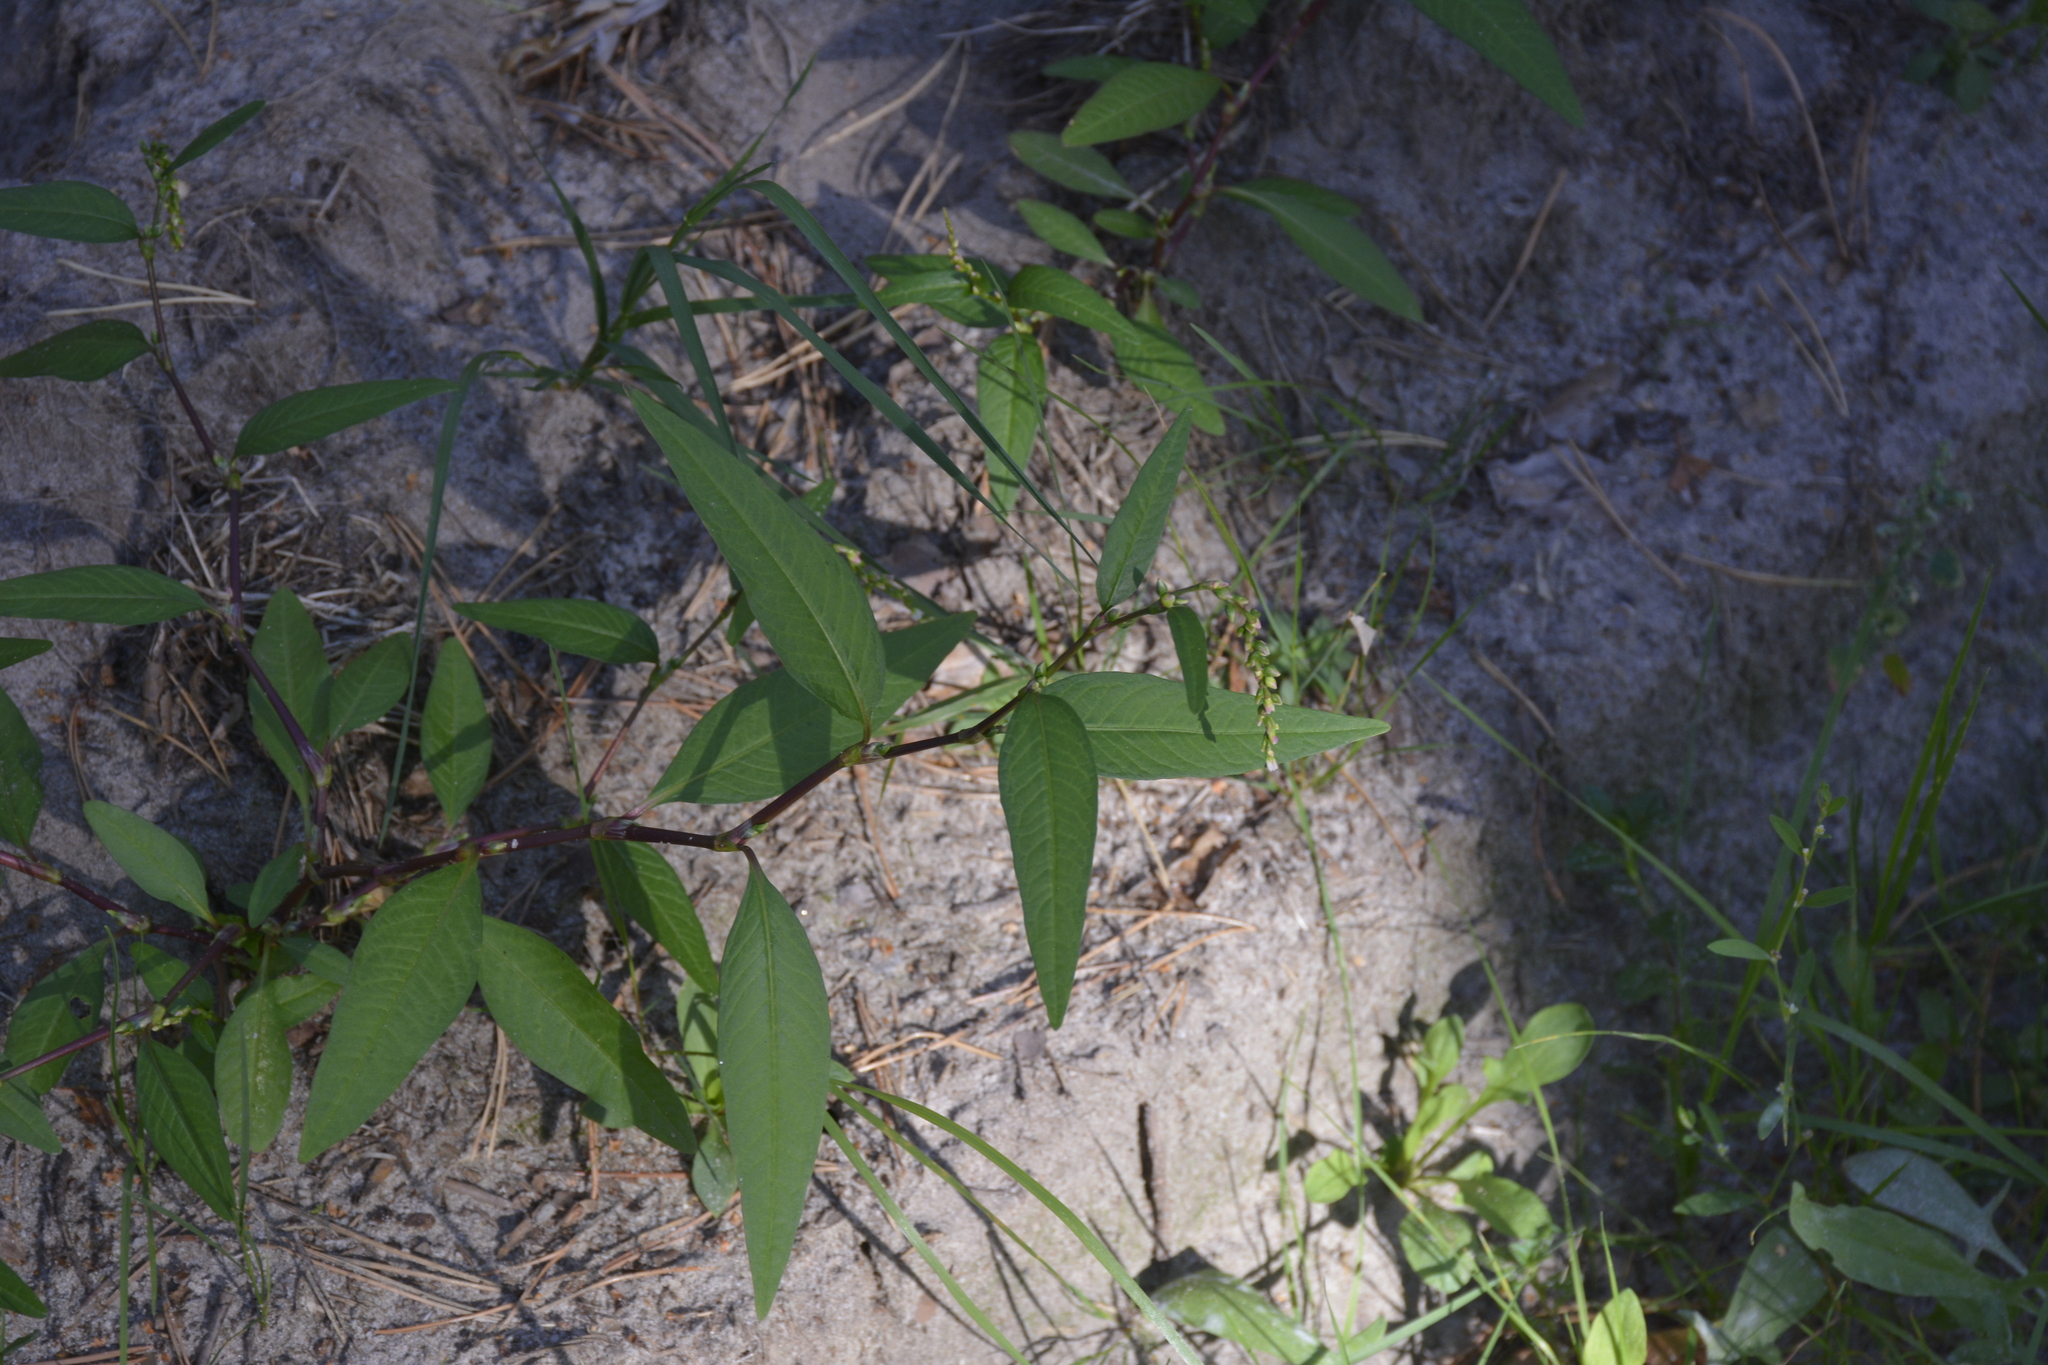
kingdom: Plantae
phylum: Tracheophyta
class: Magnoliopsida
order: Caryophyllales
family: Polygonaceae
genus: Persicaria
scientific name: Persicaria hydropiper
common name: Water-pepper
